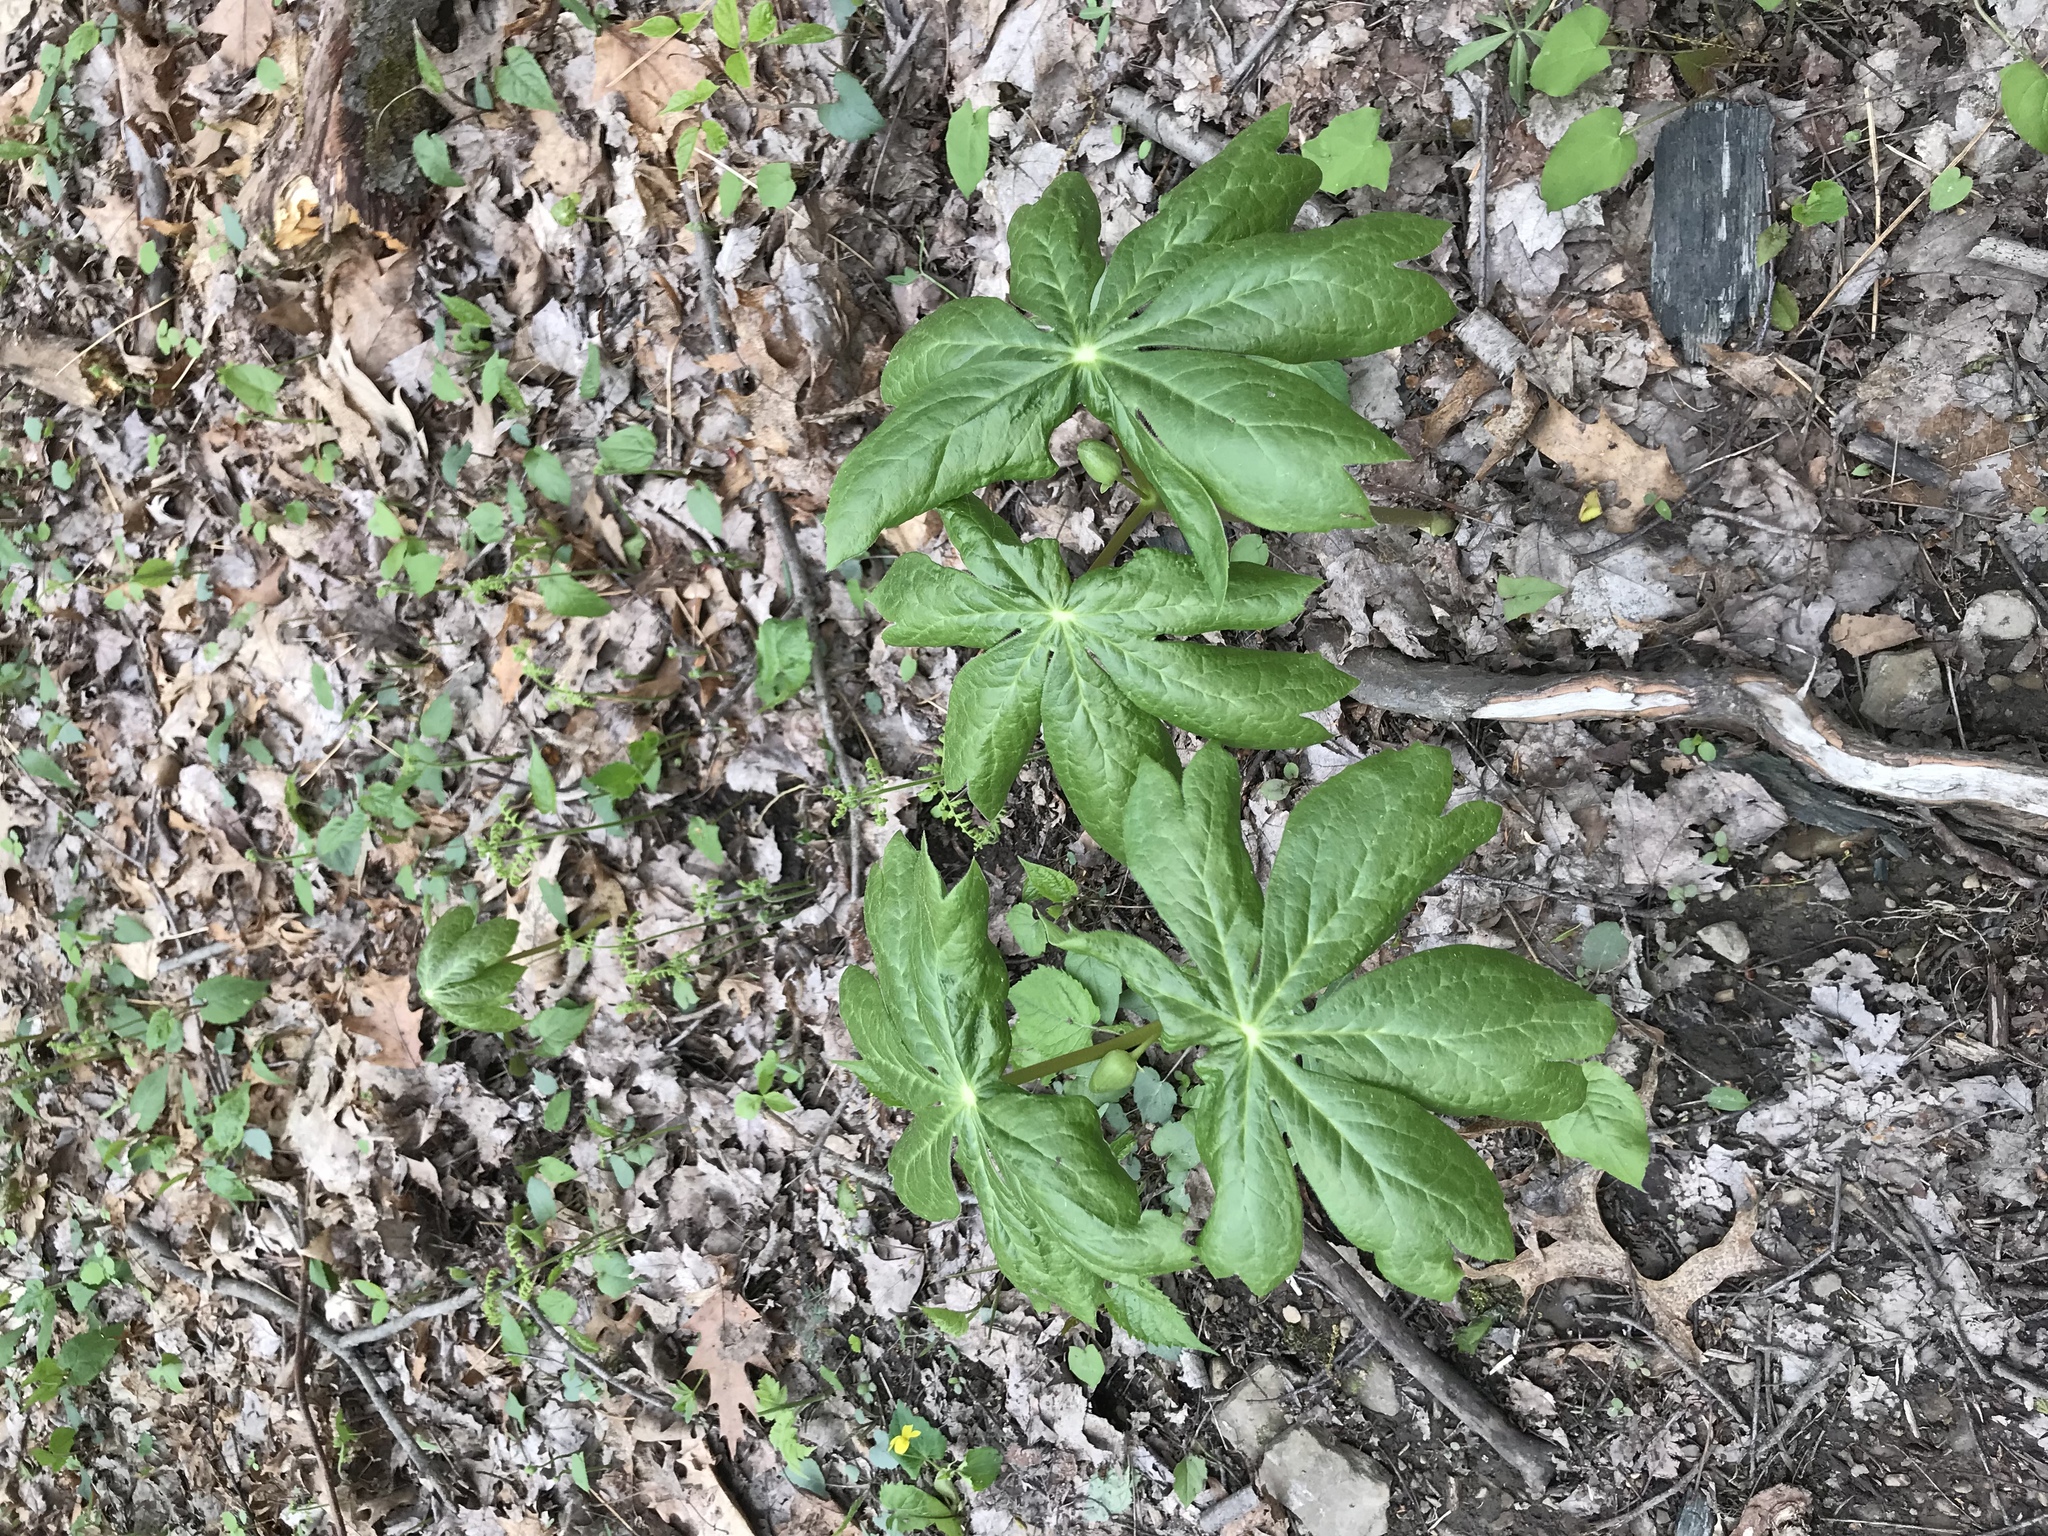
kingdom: Plantae
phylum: Tracheophyta
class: Magnoliopsida
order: Ranunculales
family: Berberidaceae
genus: Podophyllum
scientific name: Podophyllum peltatum
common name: Wild mandrake
